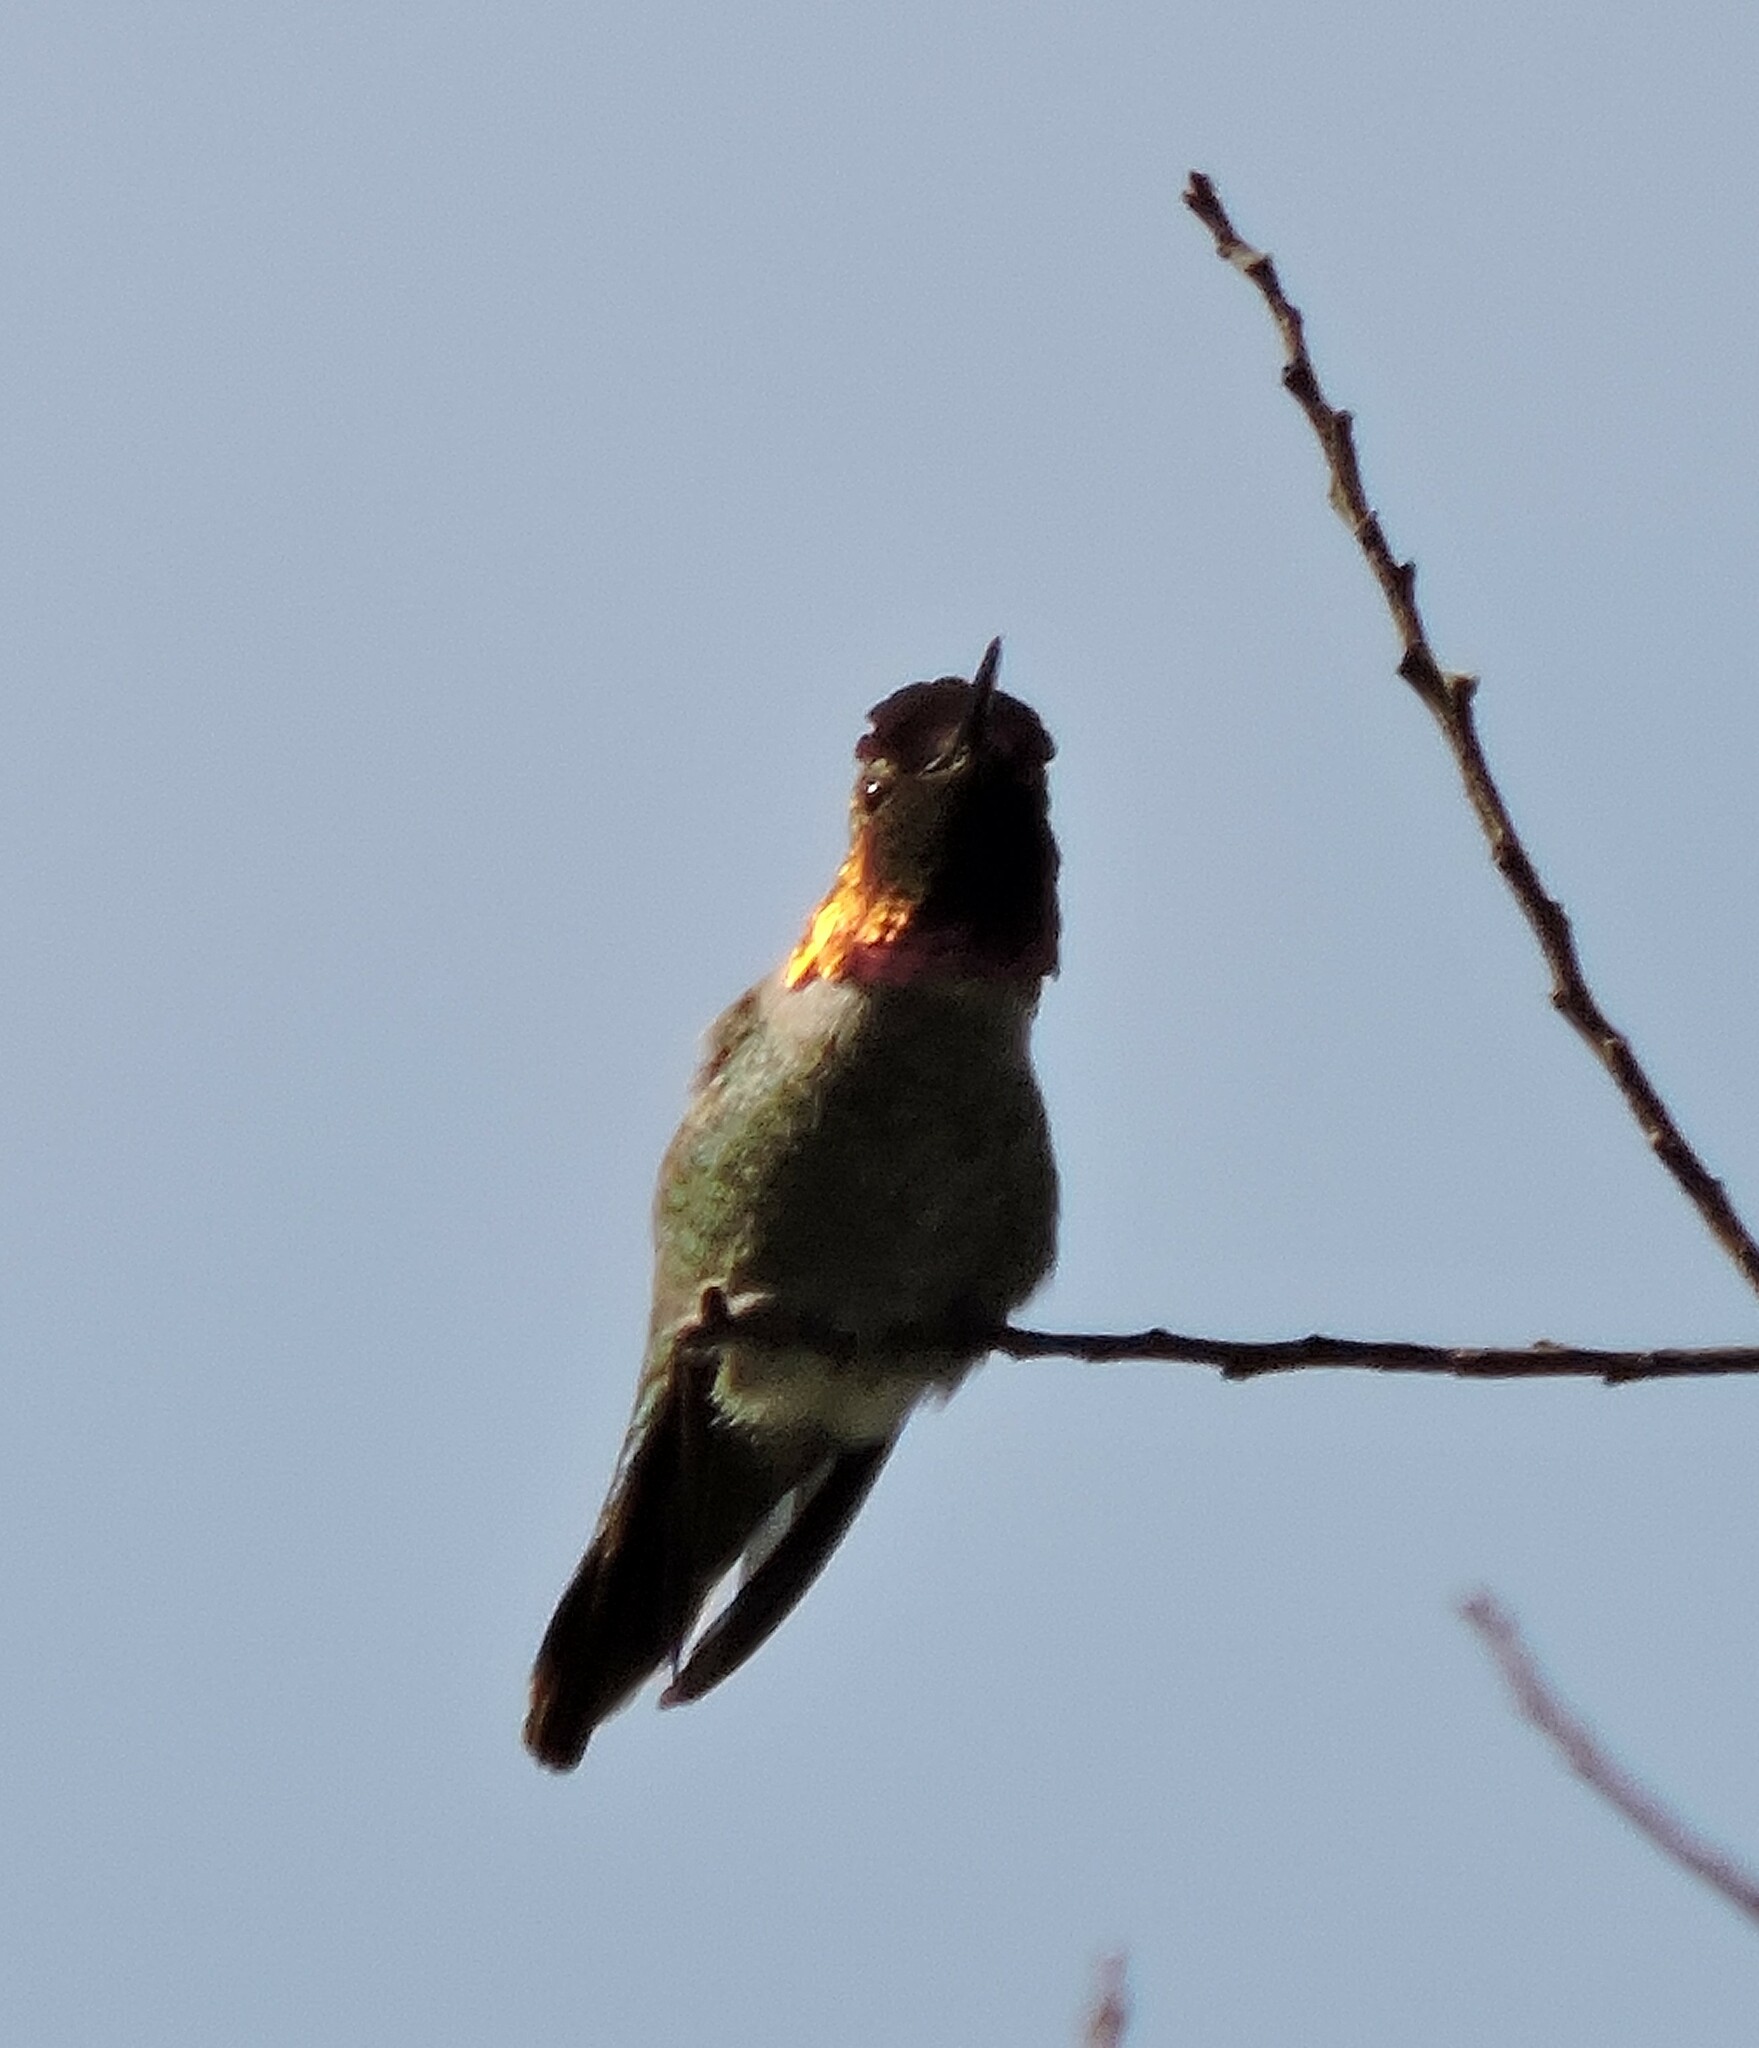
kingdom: Animalia
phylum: Chordata
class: Aves
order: Apodiformes
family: Trochilidae
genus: Calypte
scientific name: Calypte anna
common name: Anna's hummingbird
